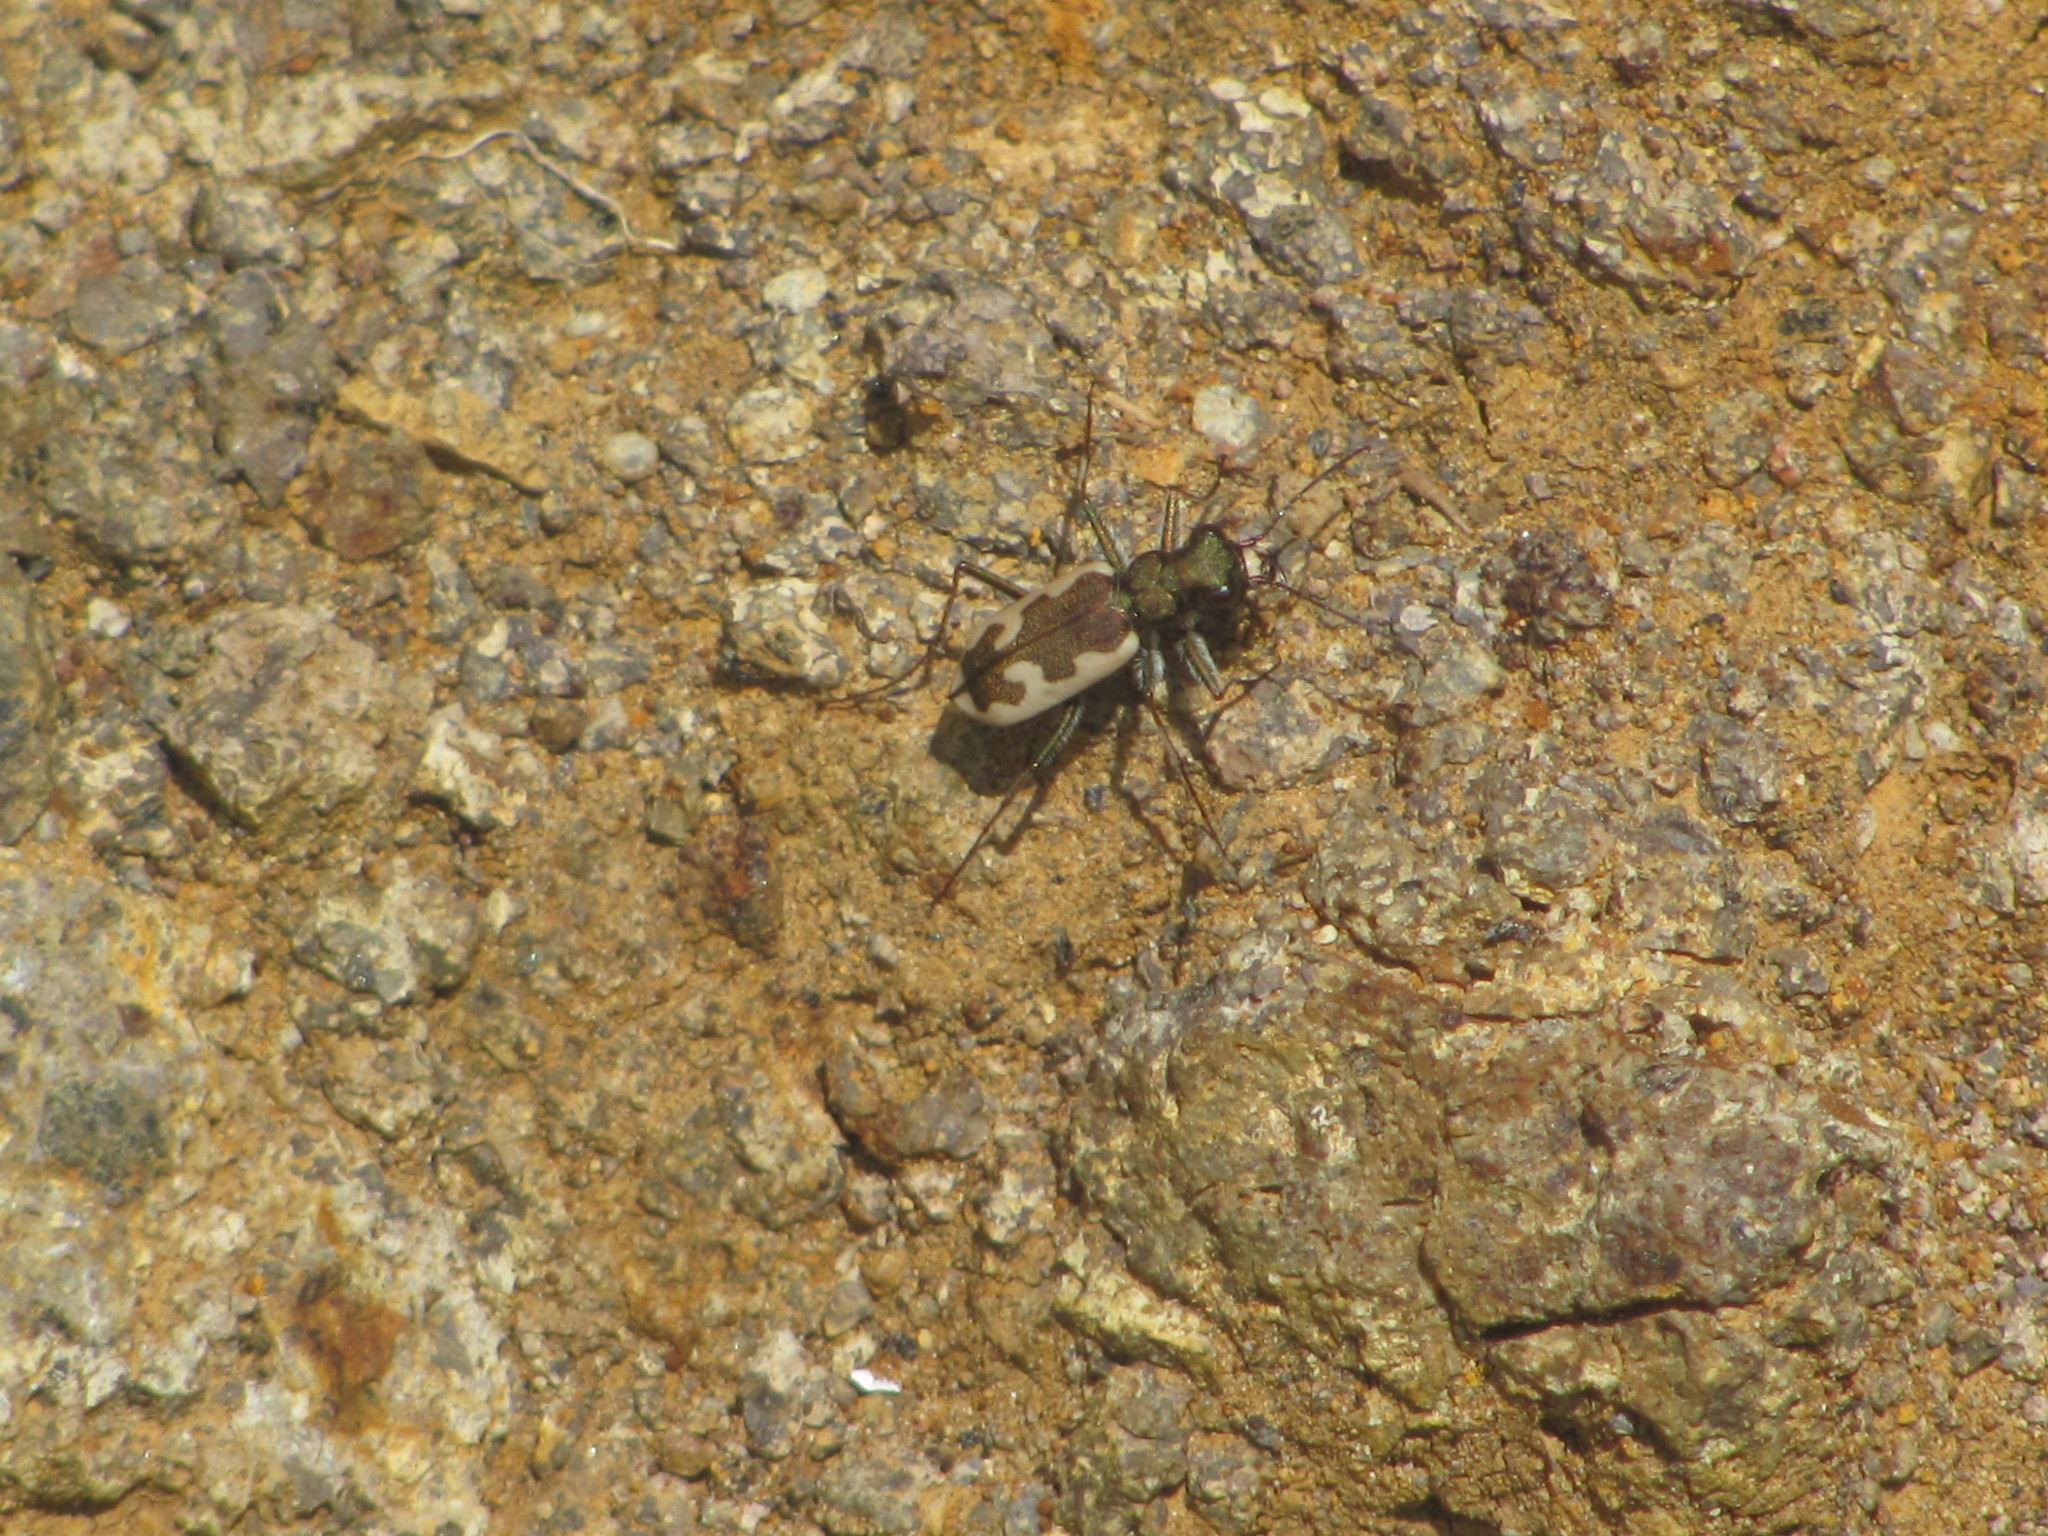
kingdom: Animalia
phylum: Arthropoda
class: Insecta
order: Coleoptera
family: Carabidae
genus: Neocicindela
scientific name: Neocicindela latecincta
